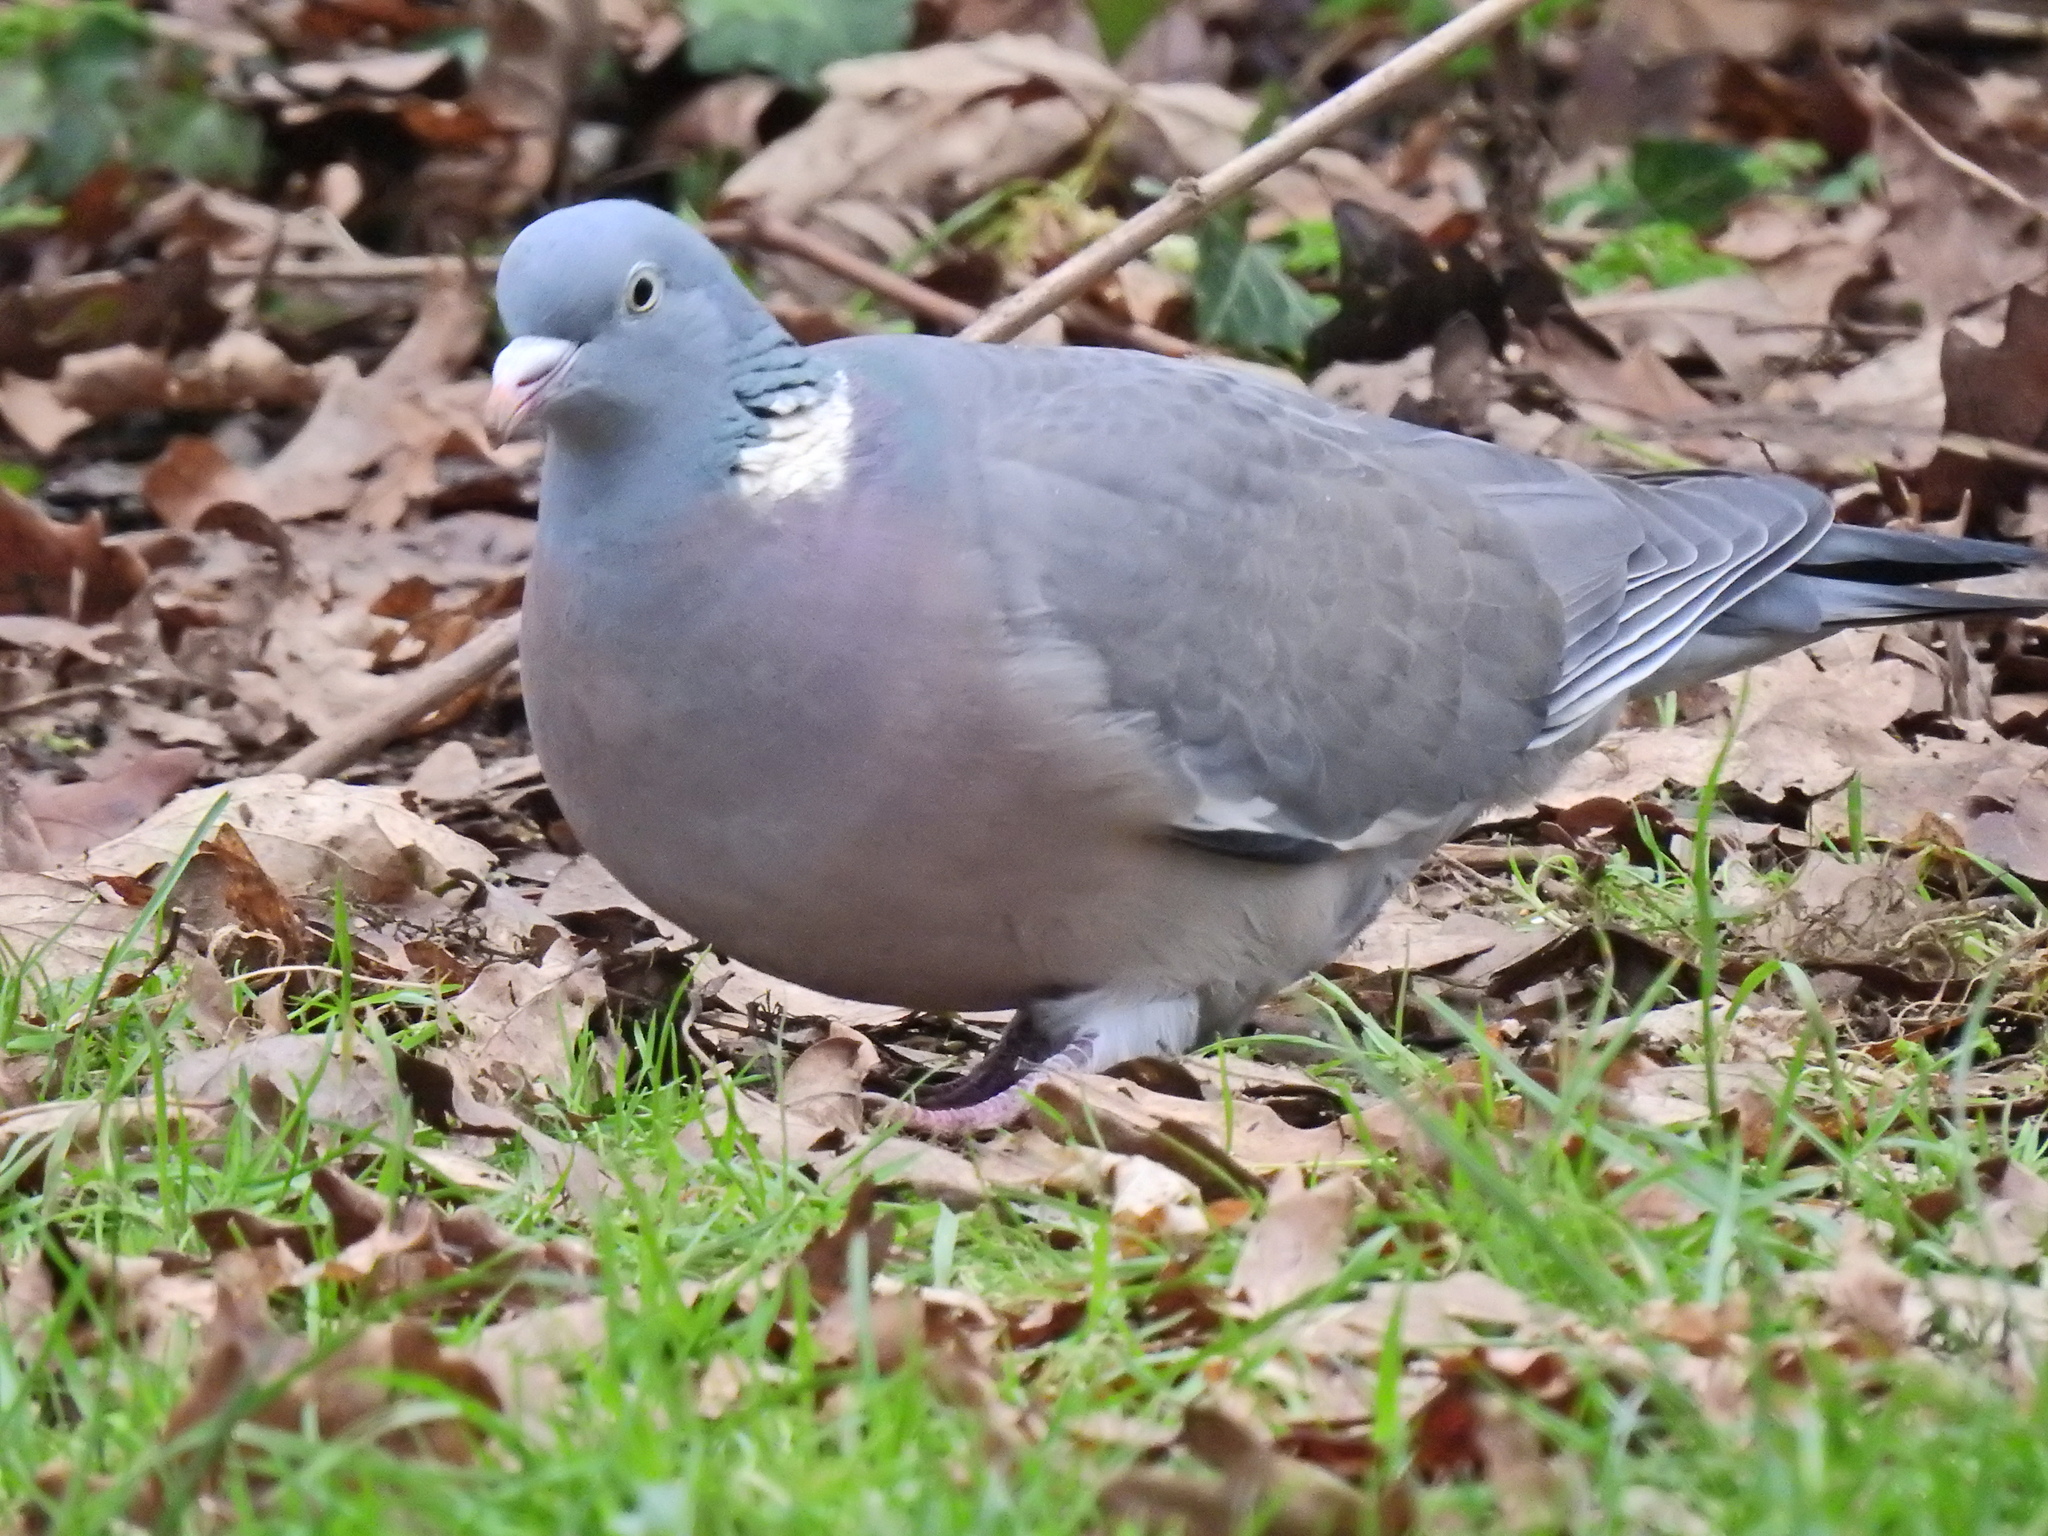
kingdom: Animalia
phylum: Chordata
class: Aves
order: Columbiformes
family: Columbidae
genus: Columba
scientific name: Columba palumbus
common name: Common wood pigeon
